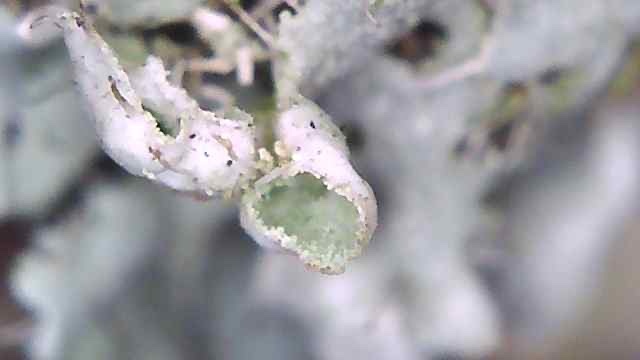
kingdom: Fungi
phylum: Ascomycota
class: Lecanoromycetes
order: Caliciales
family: Physciaceae
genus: Physcia
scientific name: Physcia adscendens
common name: Hooded rosette lichen
